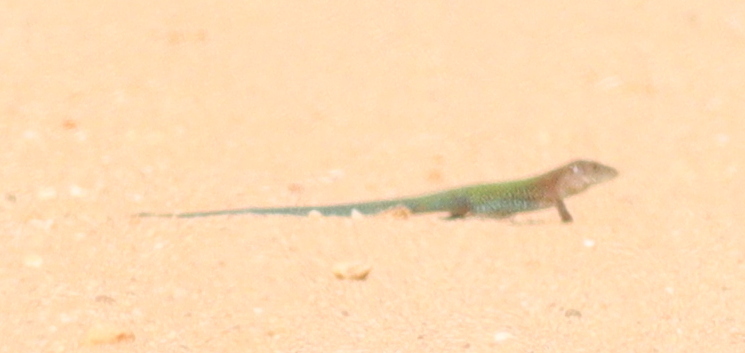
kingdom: Animalia
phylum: Chordata
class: Squamata
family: Teiidae
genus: Ameiva
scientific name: Ameiva ameiva
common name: Giant ameiva
